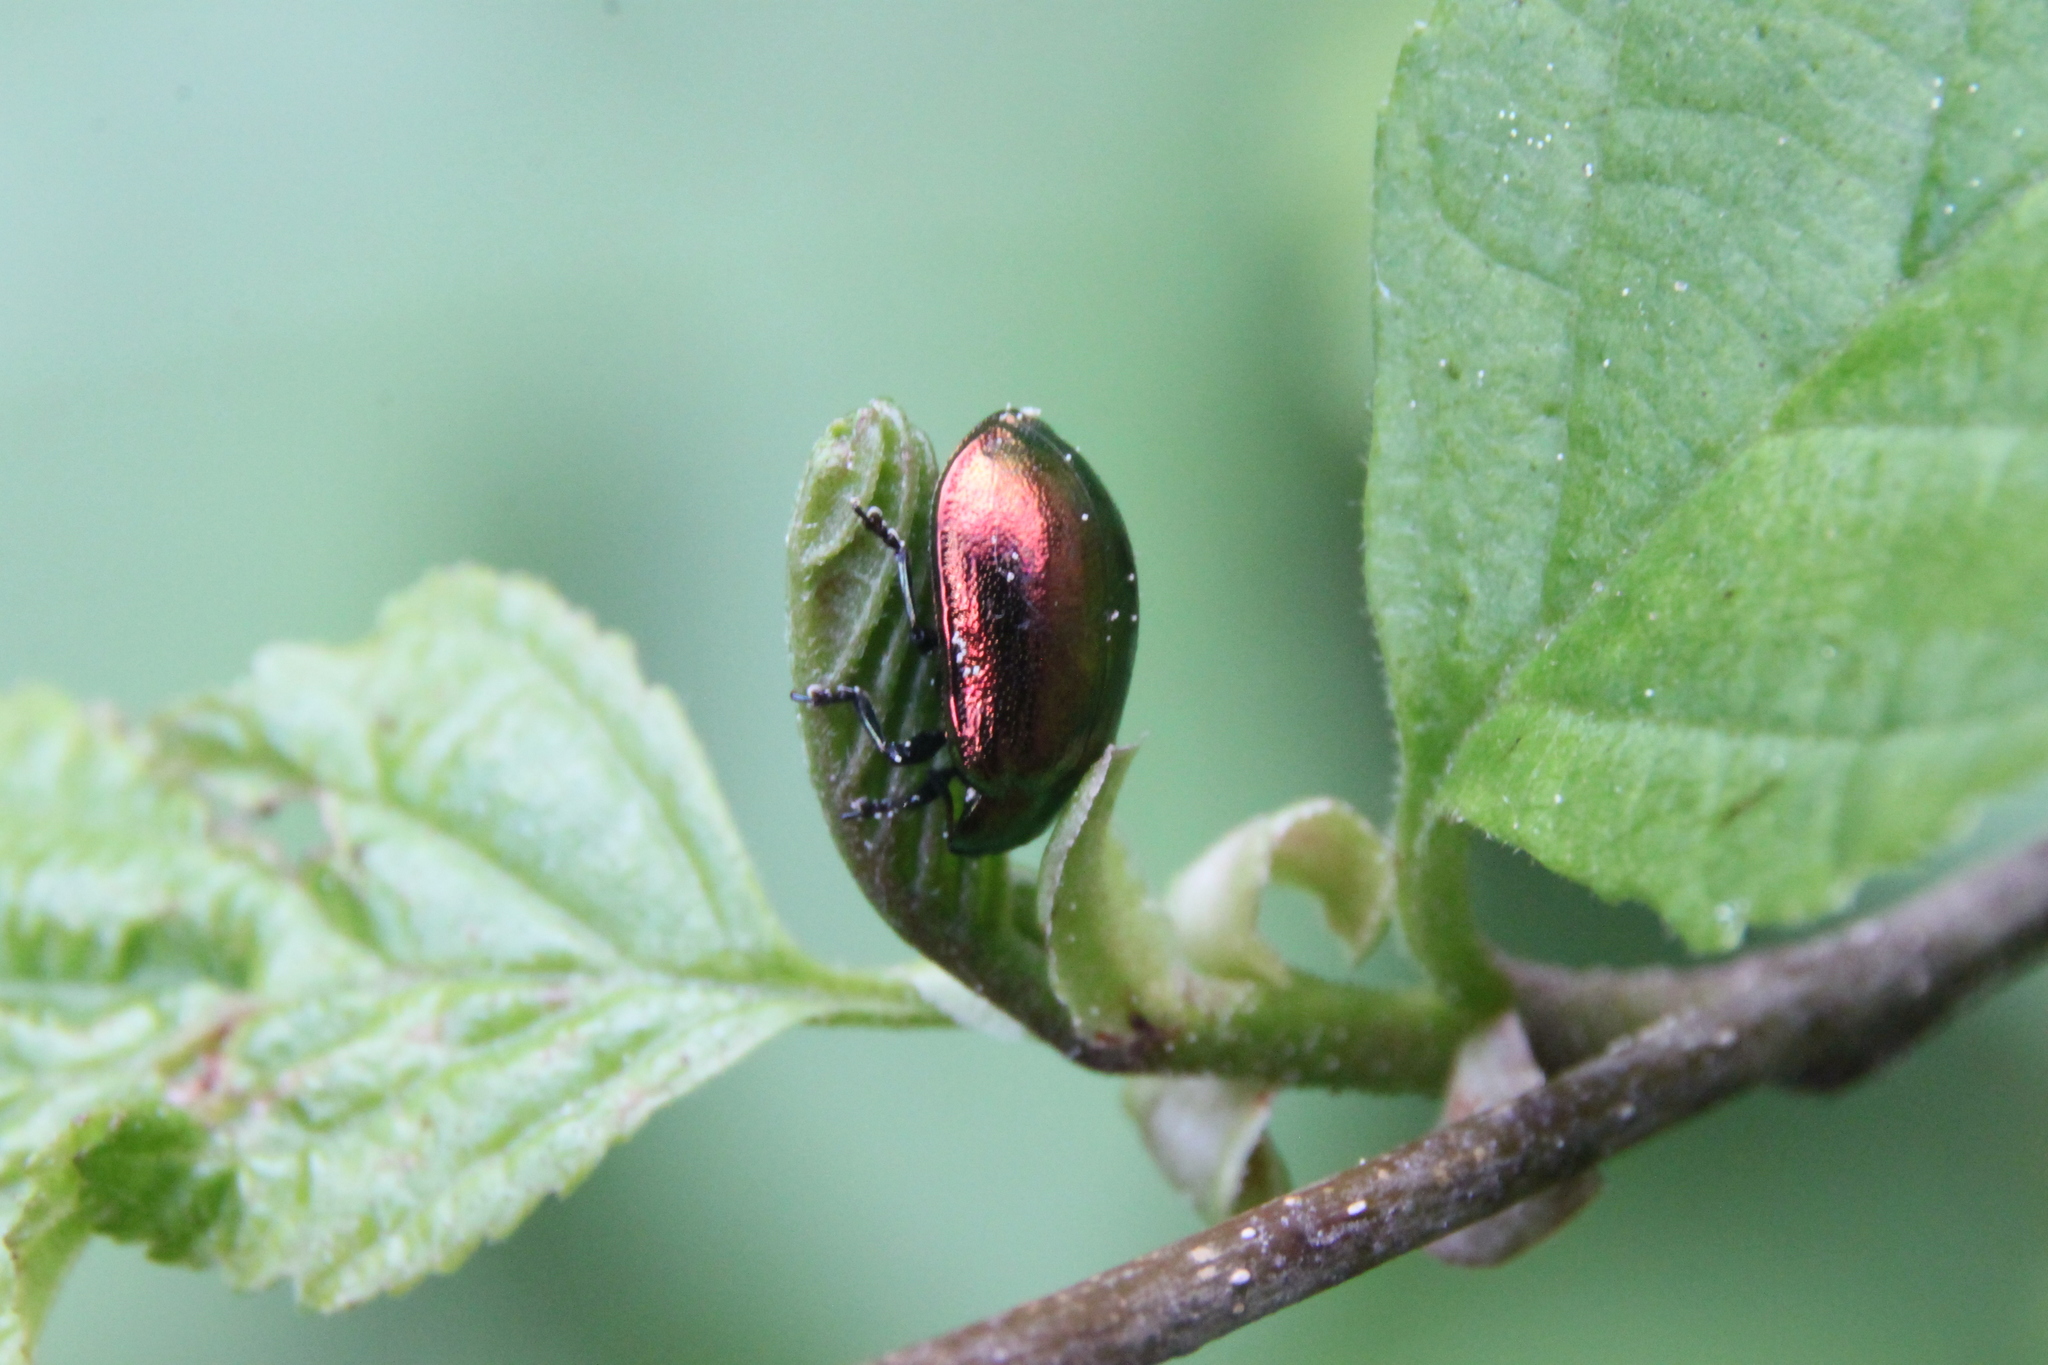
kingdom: Animalia
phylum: Arthropoda
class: Insecta
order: Coleoptera
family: Chrysomelidae
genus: Plagiosterna
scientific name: Plagiosterna aenea
